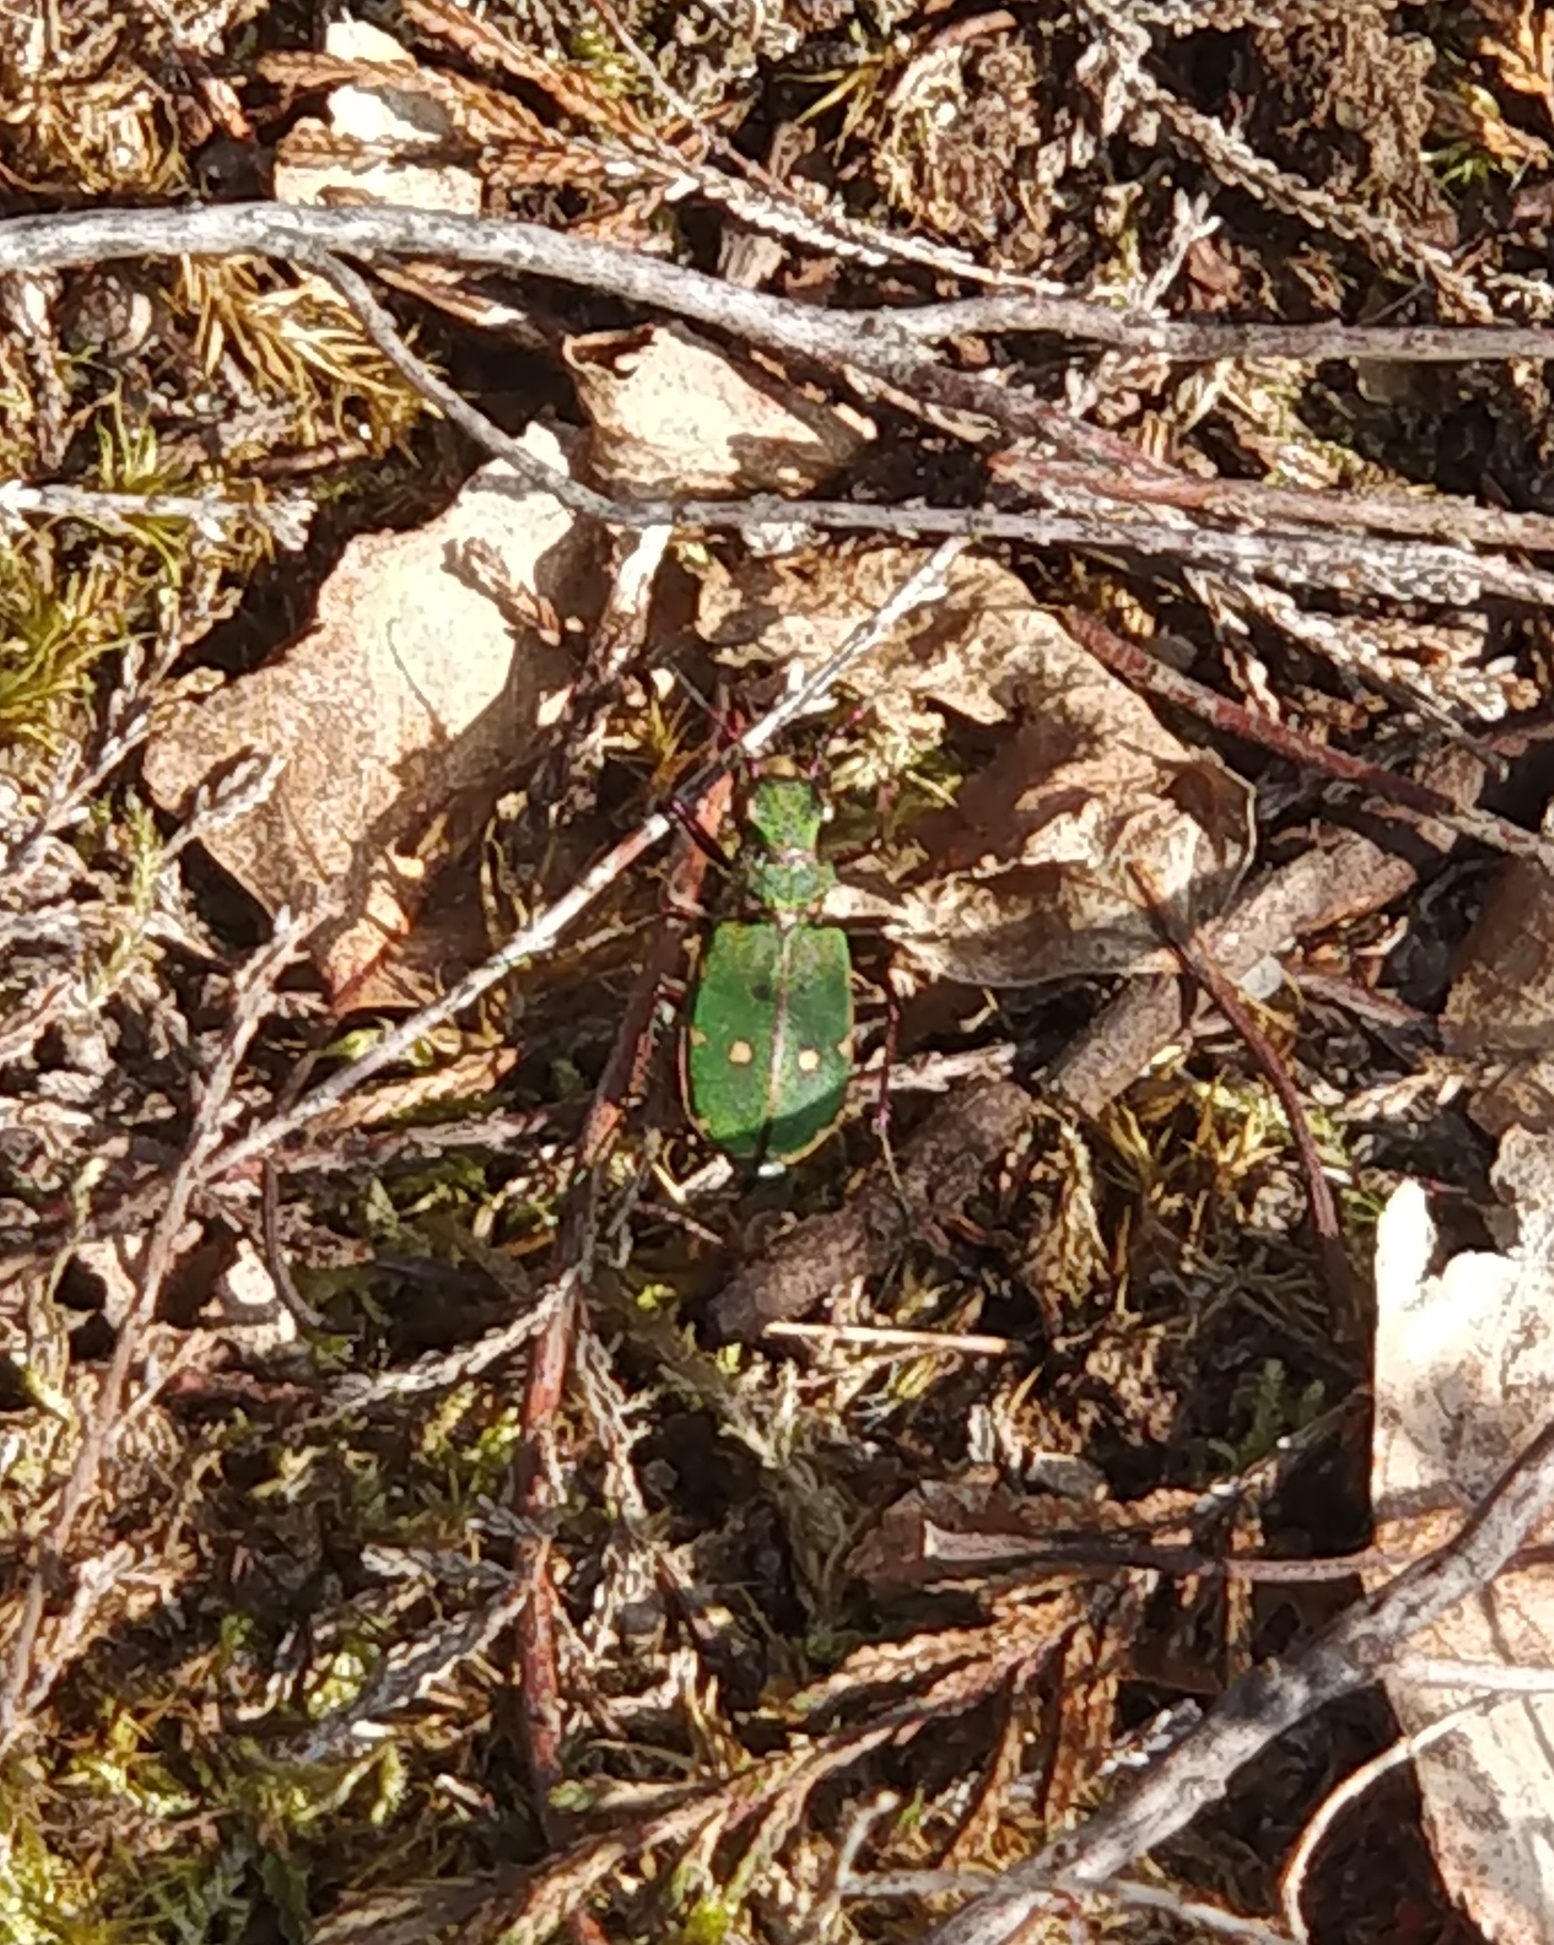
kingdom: Animalia
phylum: Arthropoda
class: Insecta
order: Coleoptera
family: Carabidae
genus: Cicindela
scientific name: Cicindela campestris
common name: Common tiger beetle
